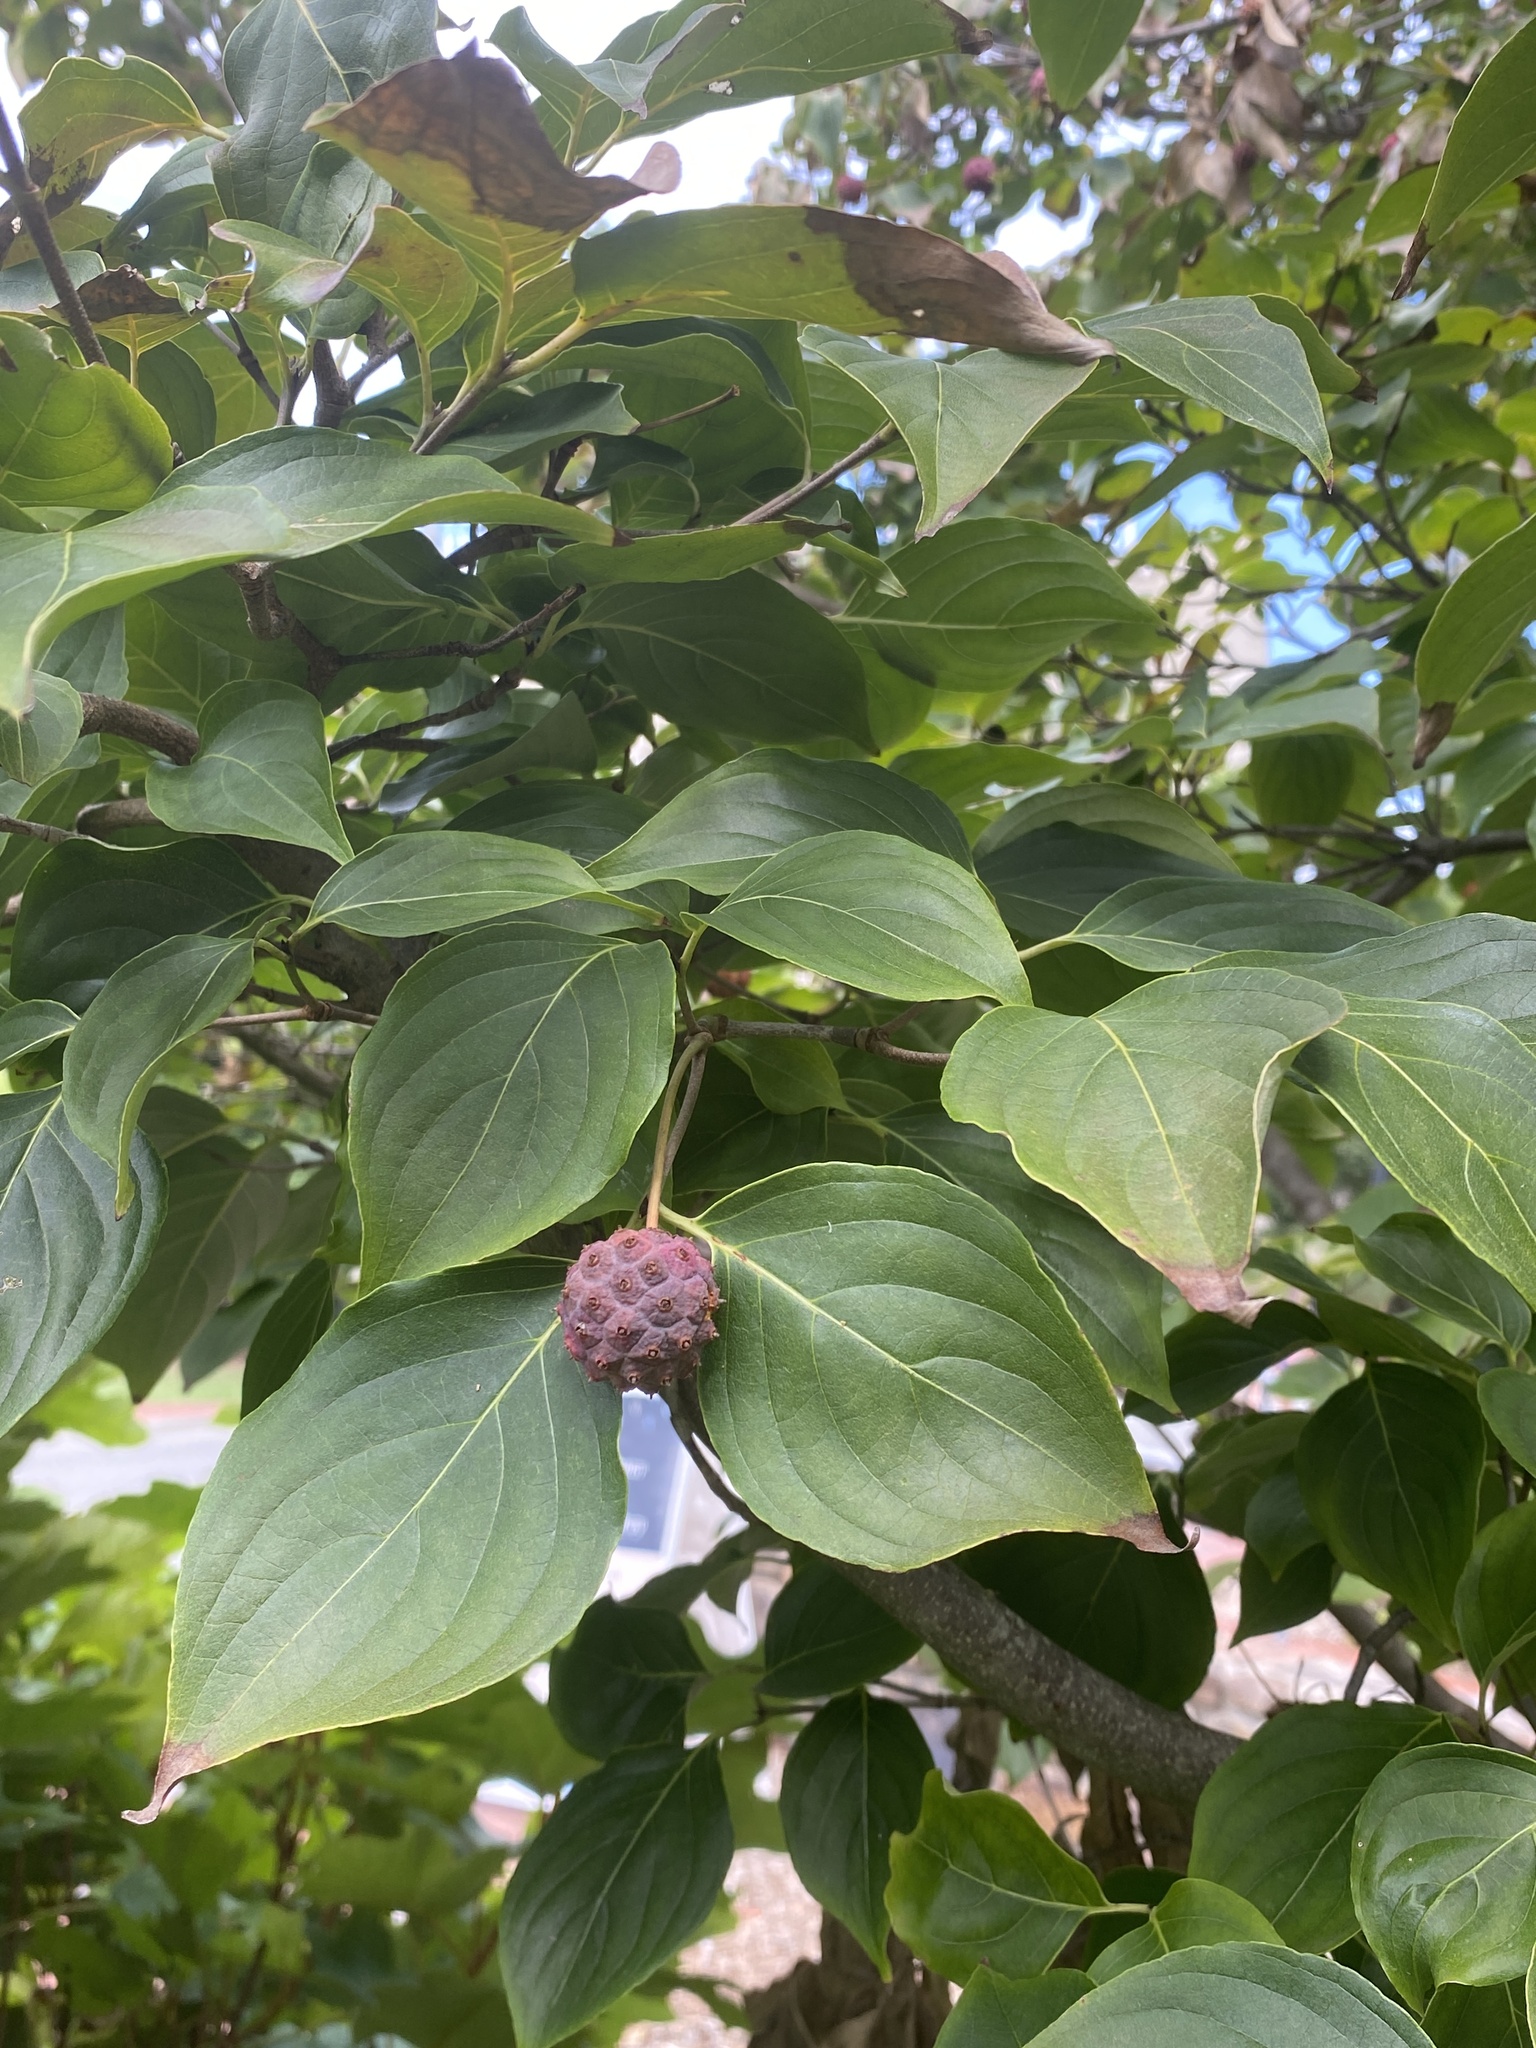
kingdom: Plantae
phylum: Tracheophyta
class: Magnoliopsida
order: Cornales
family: Cornaceae
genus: Cornus
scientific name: Cornus kousa
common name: Japanese dogwood
